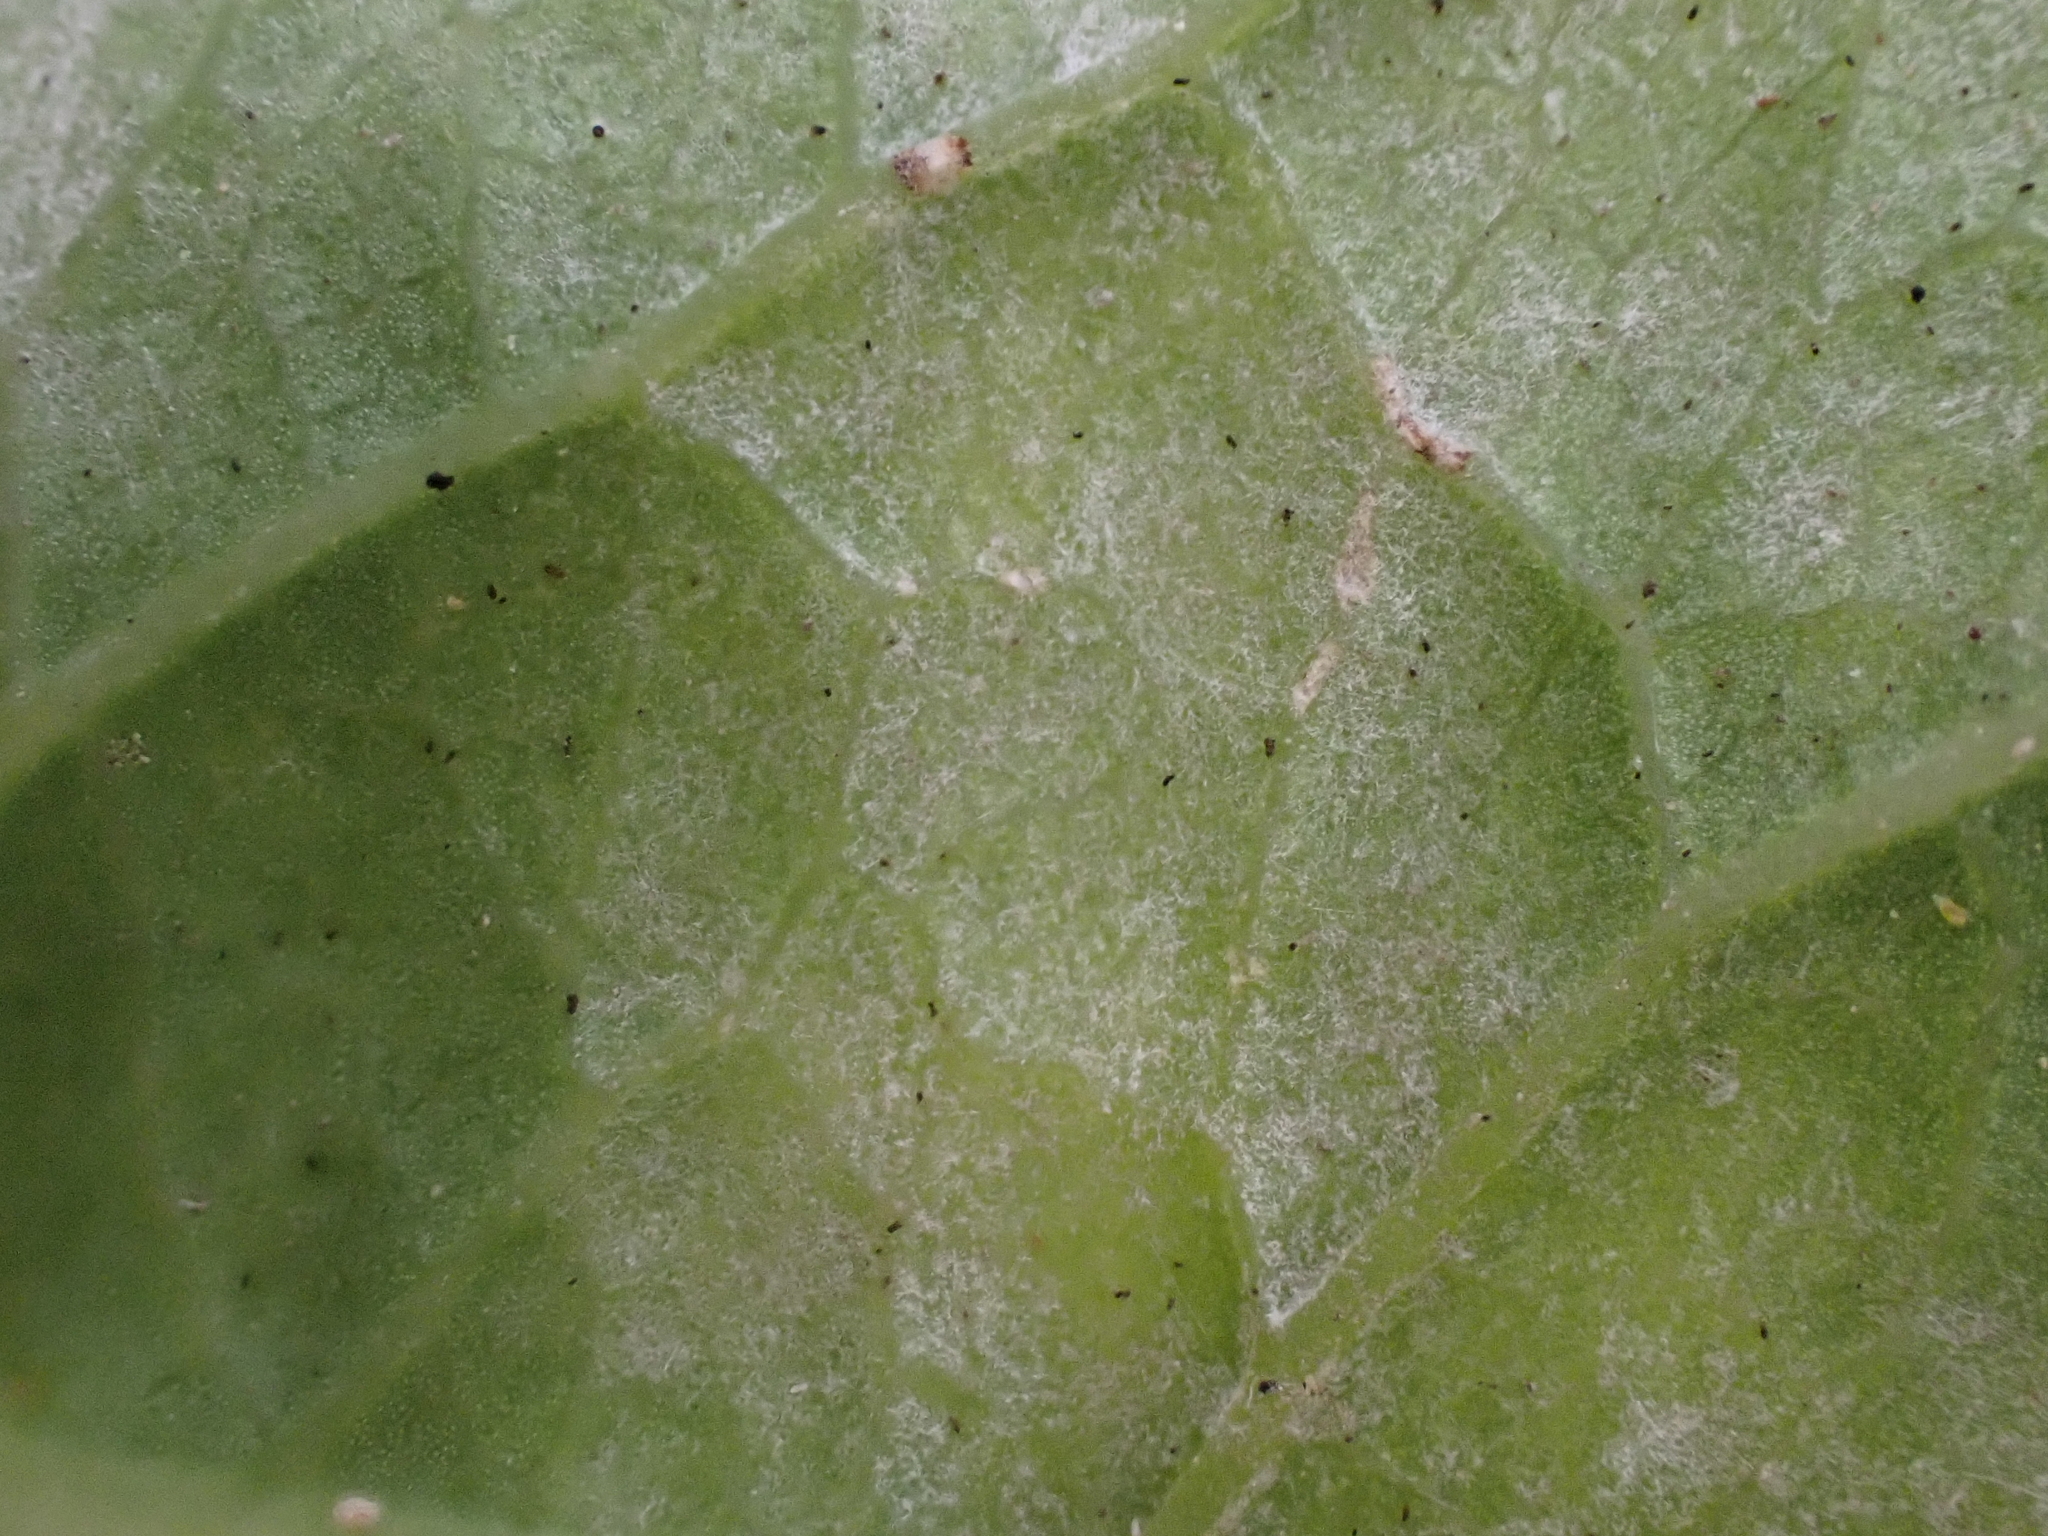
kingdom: Fungi
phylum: Ascomycota
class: Leotiomycetes
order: Helotiales
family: Erysiphaceae
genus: Erysiphe
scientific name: Erysiphe euonymi
